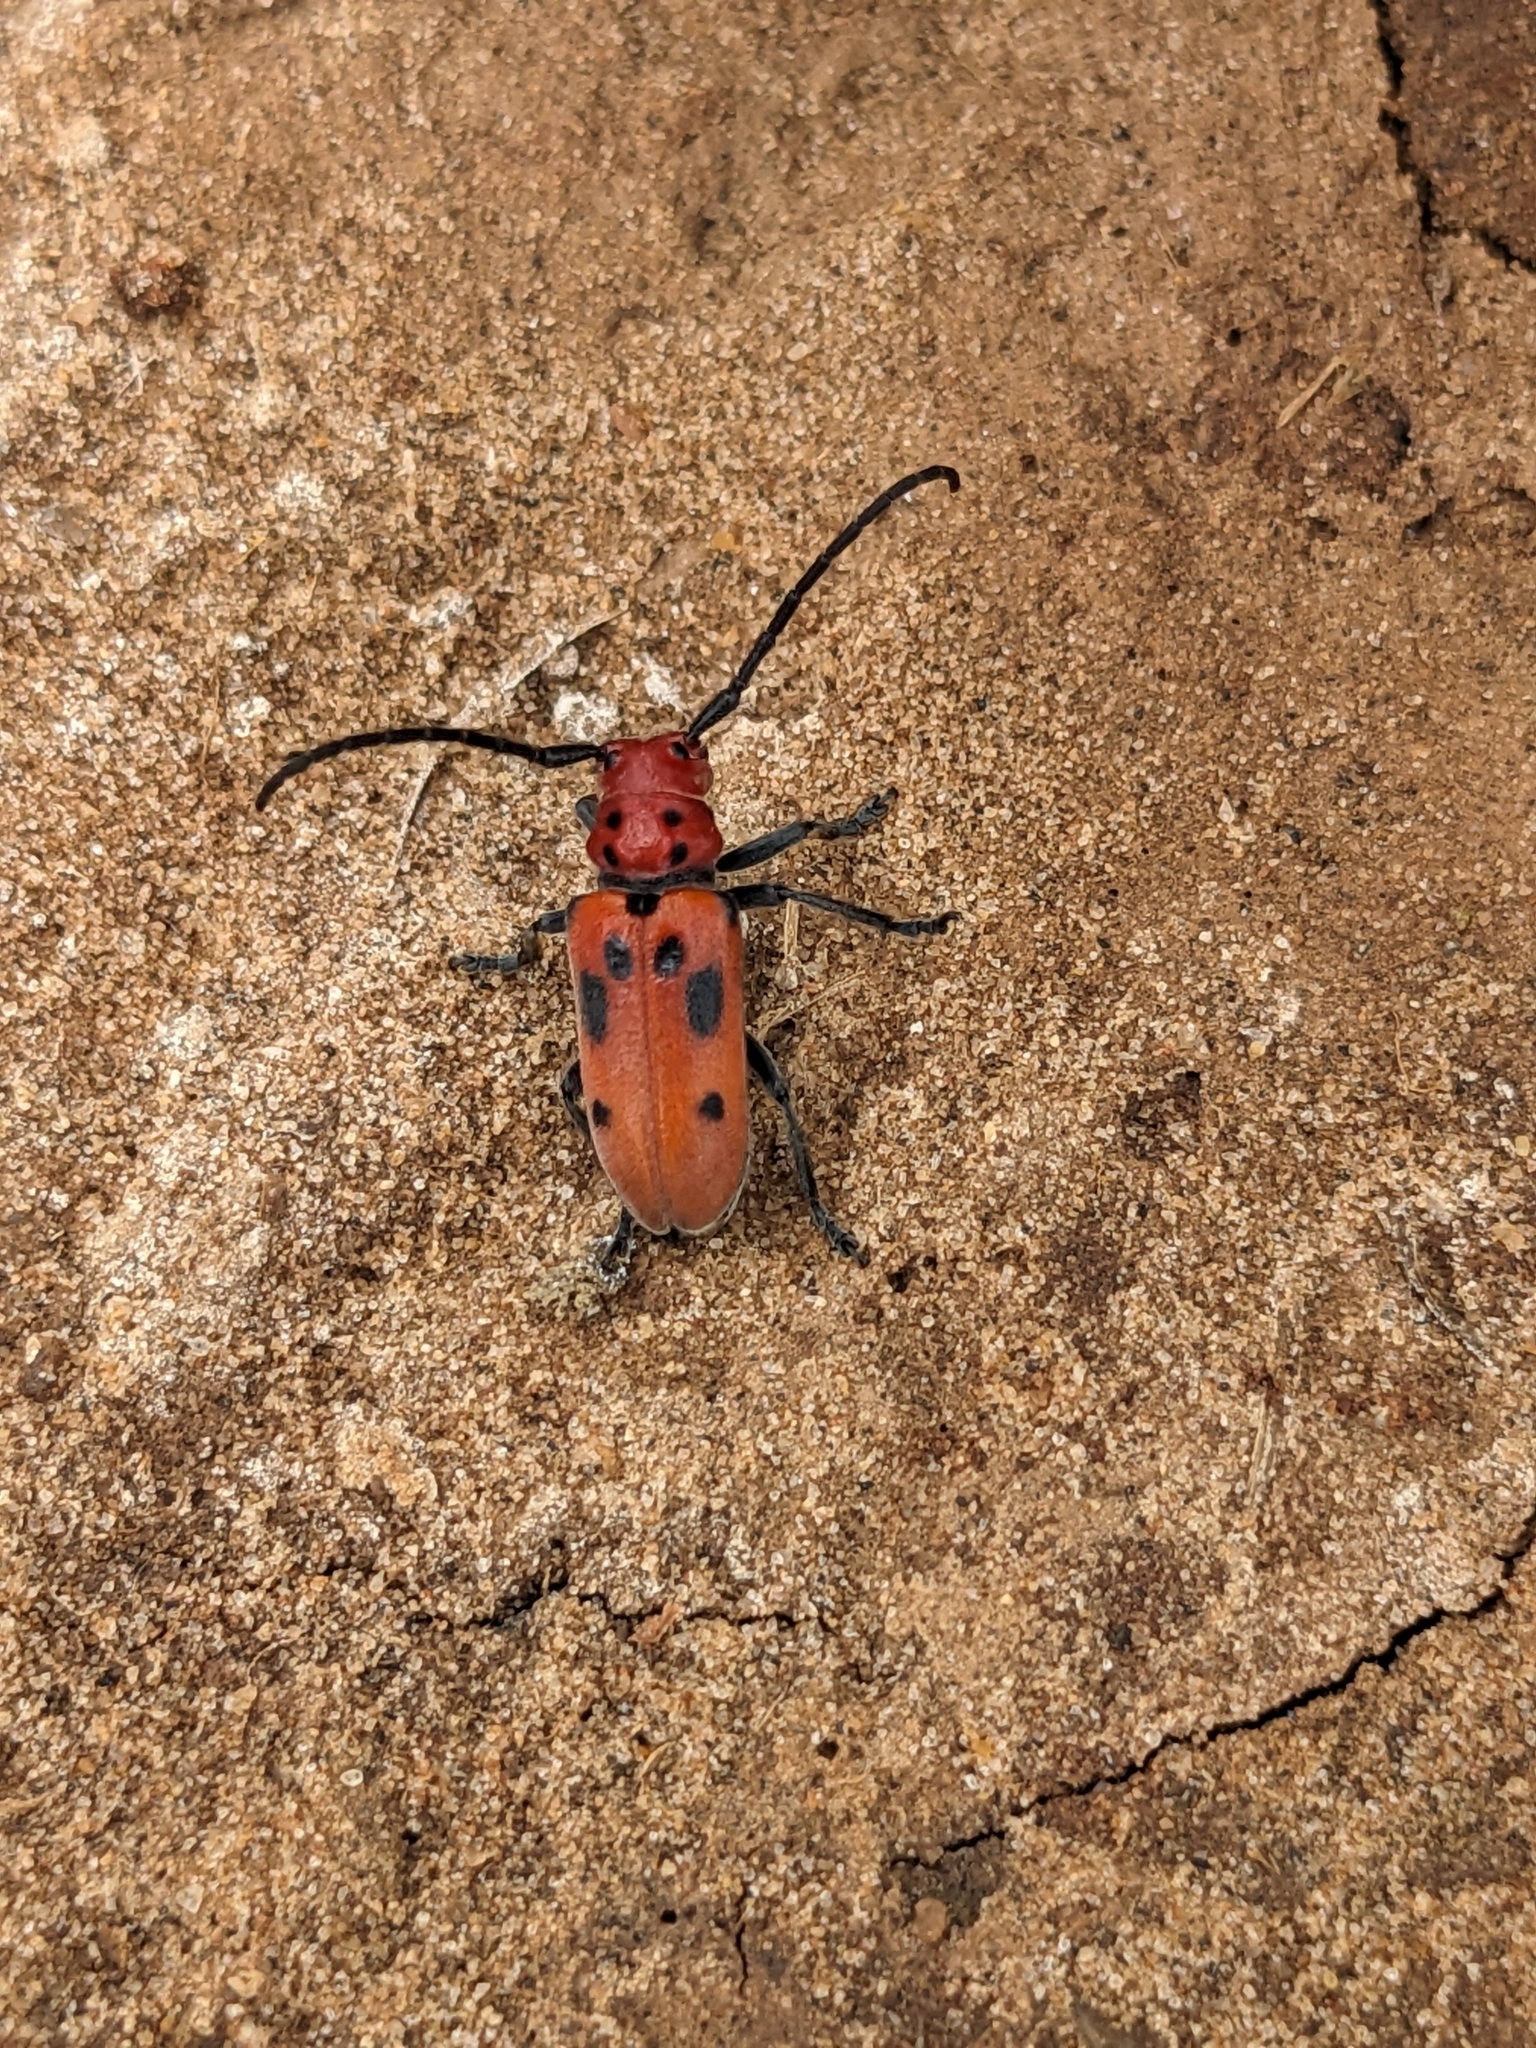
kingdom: Animalia
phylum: Arthropoda
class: Insecta
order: Coleoptera
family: Cerambycidae
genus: Tetraopes
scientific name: Tetraopes tetrophthalmus
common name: Red milkweed beetle
